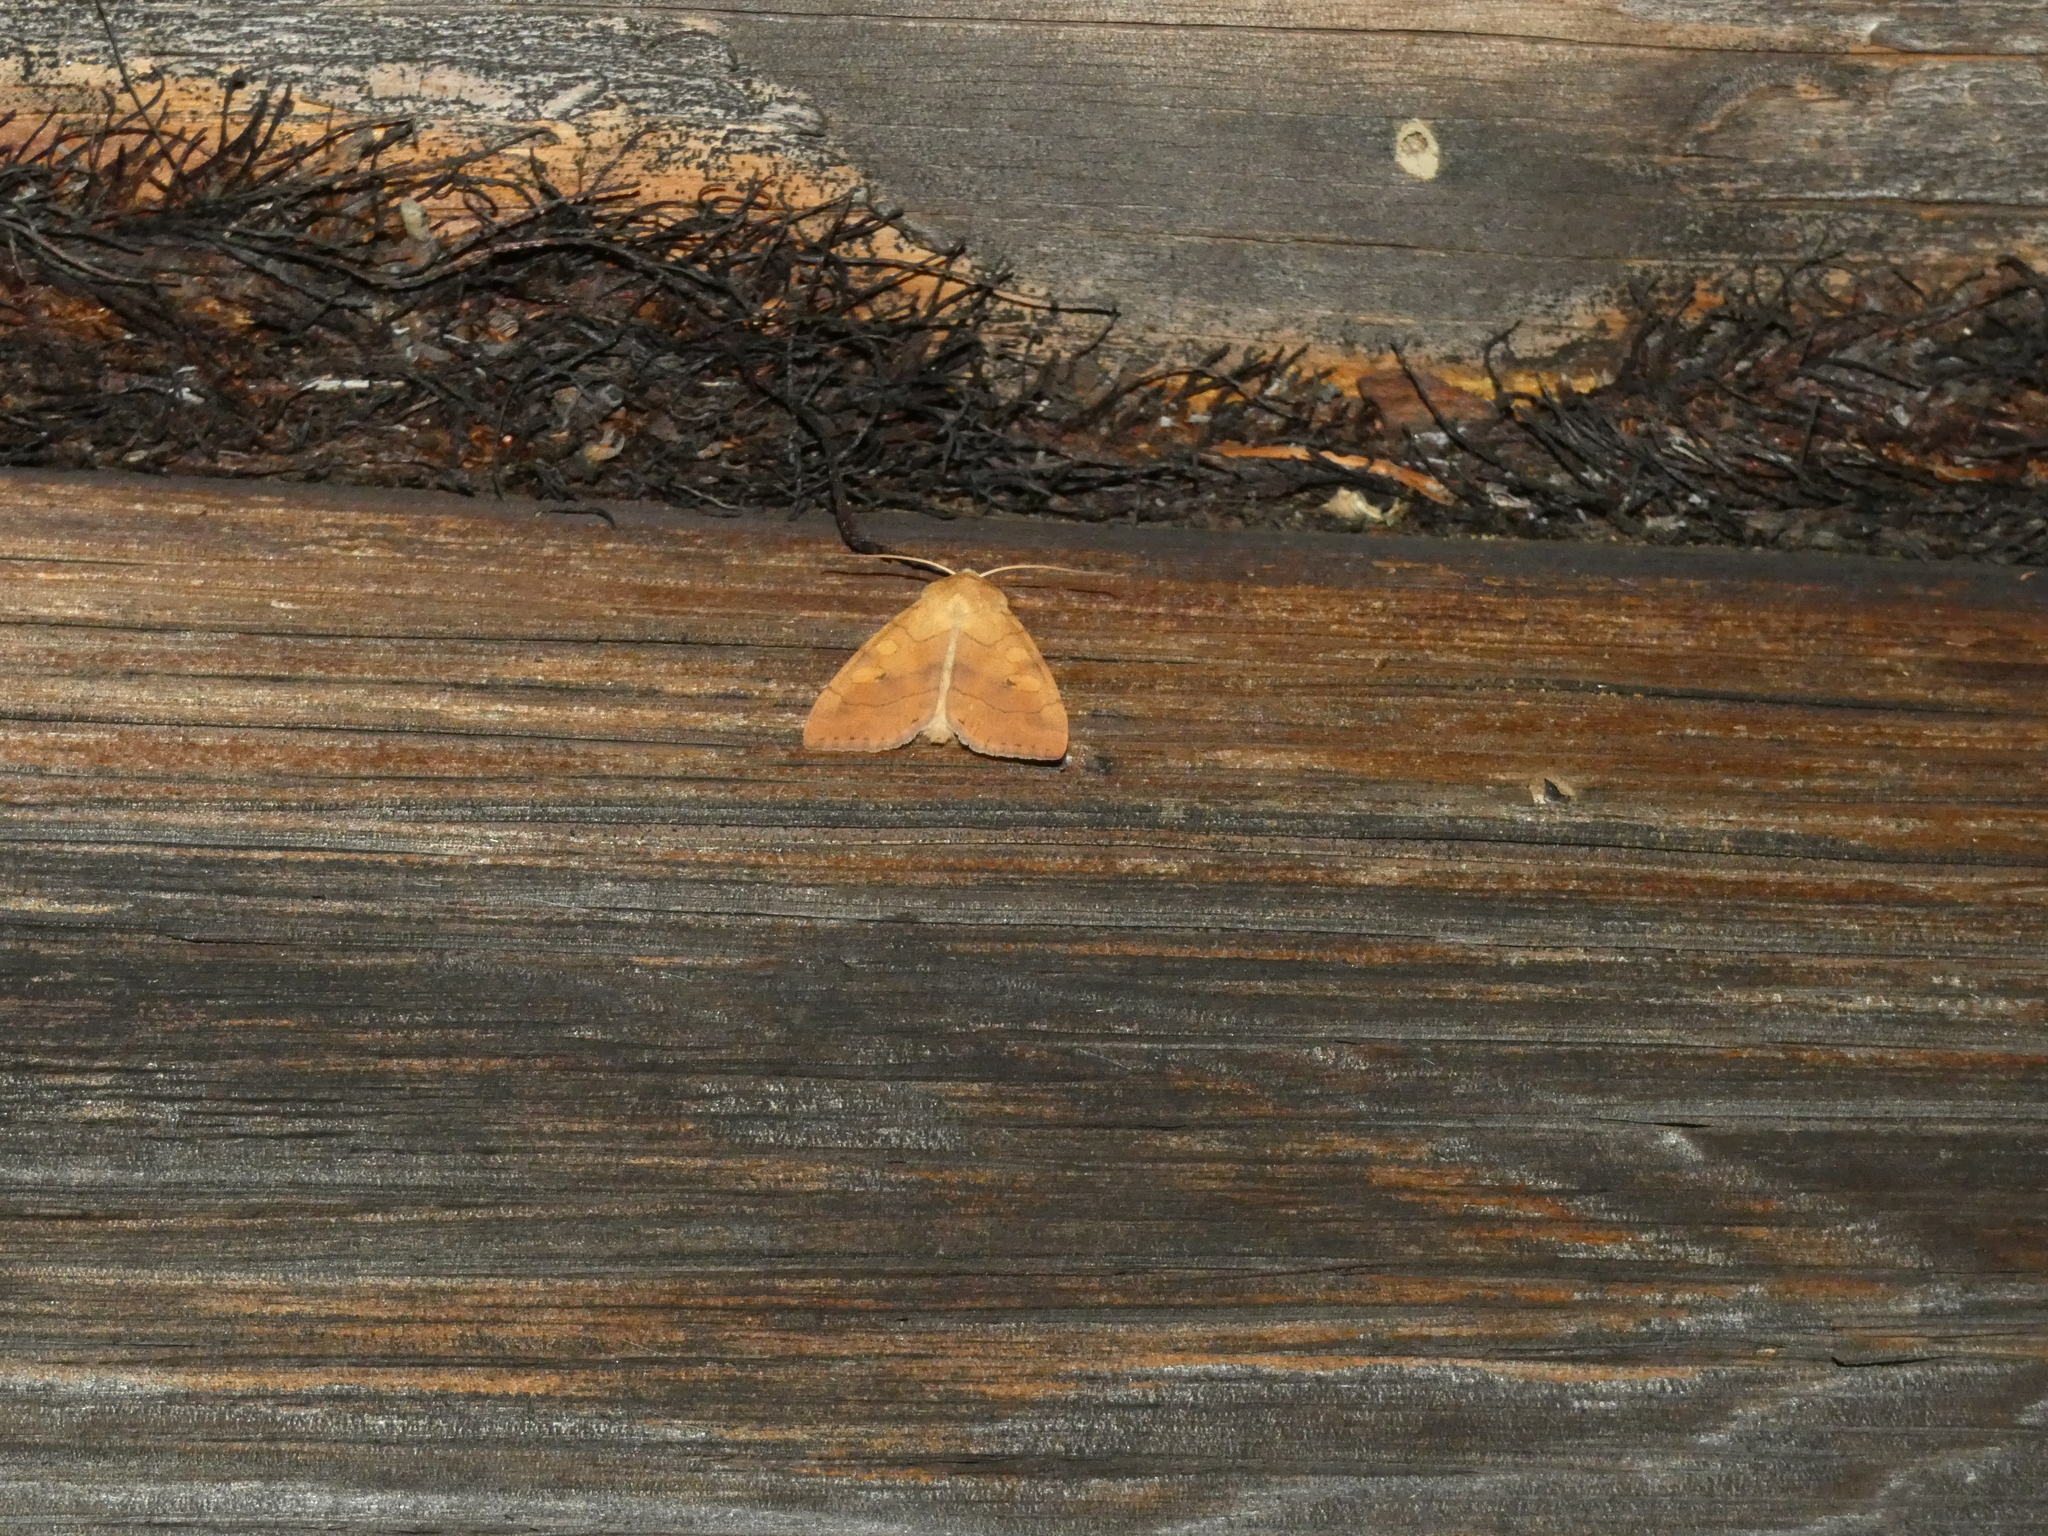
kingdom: Animalia
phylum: Arthropoda
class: Insecta
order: Lepidoptera
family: Noctuidae
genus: Enargia
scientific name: Enargia paleacea
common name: Angle-striped sallow
